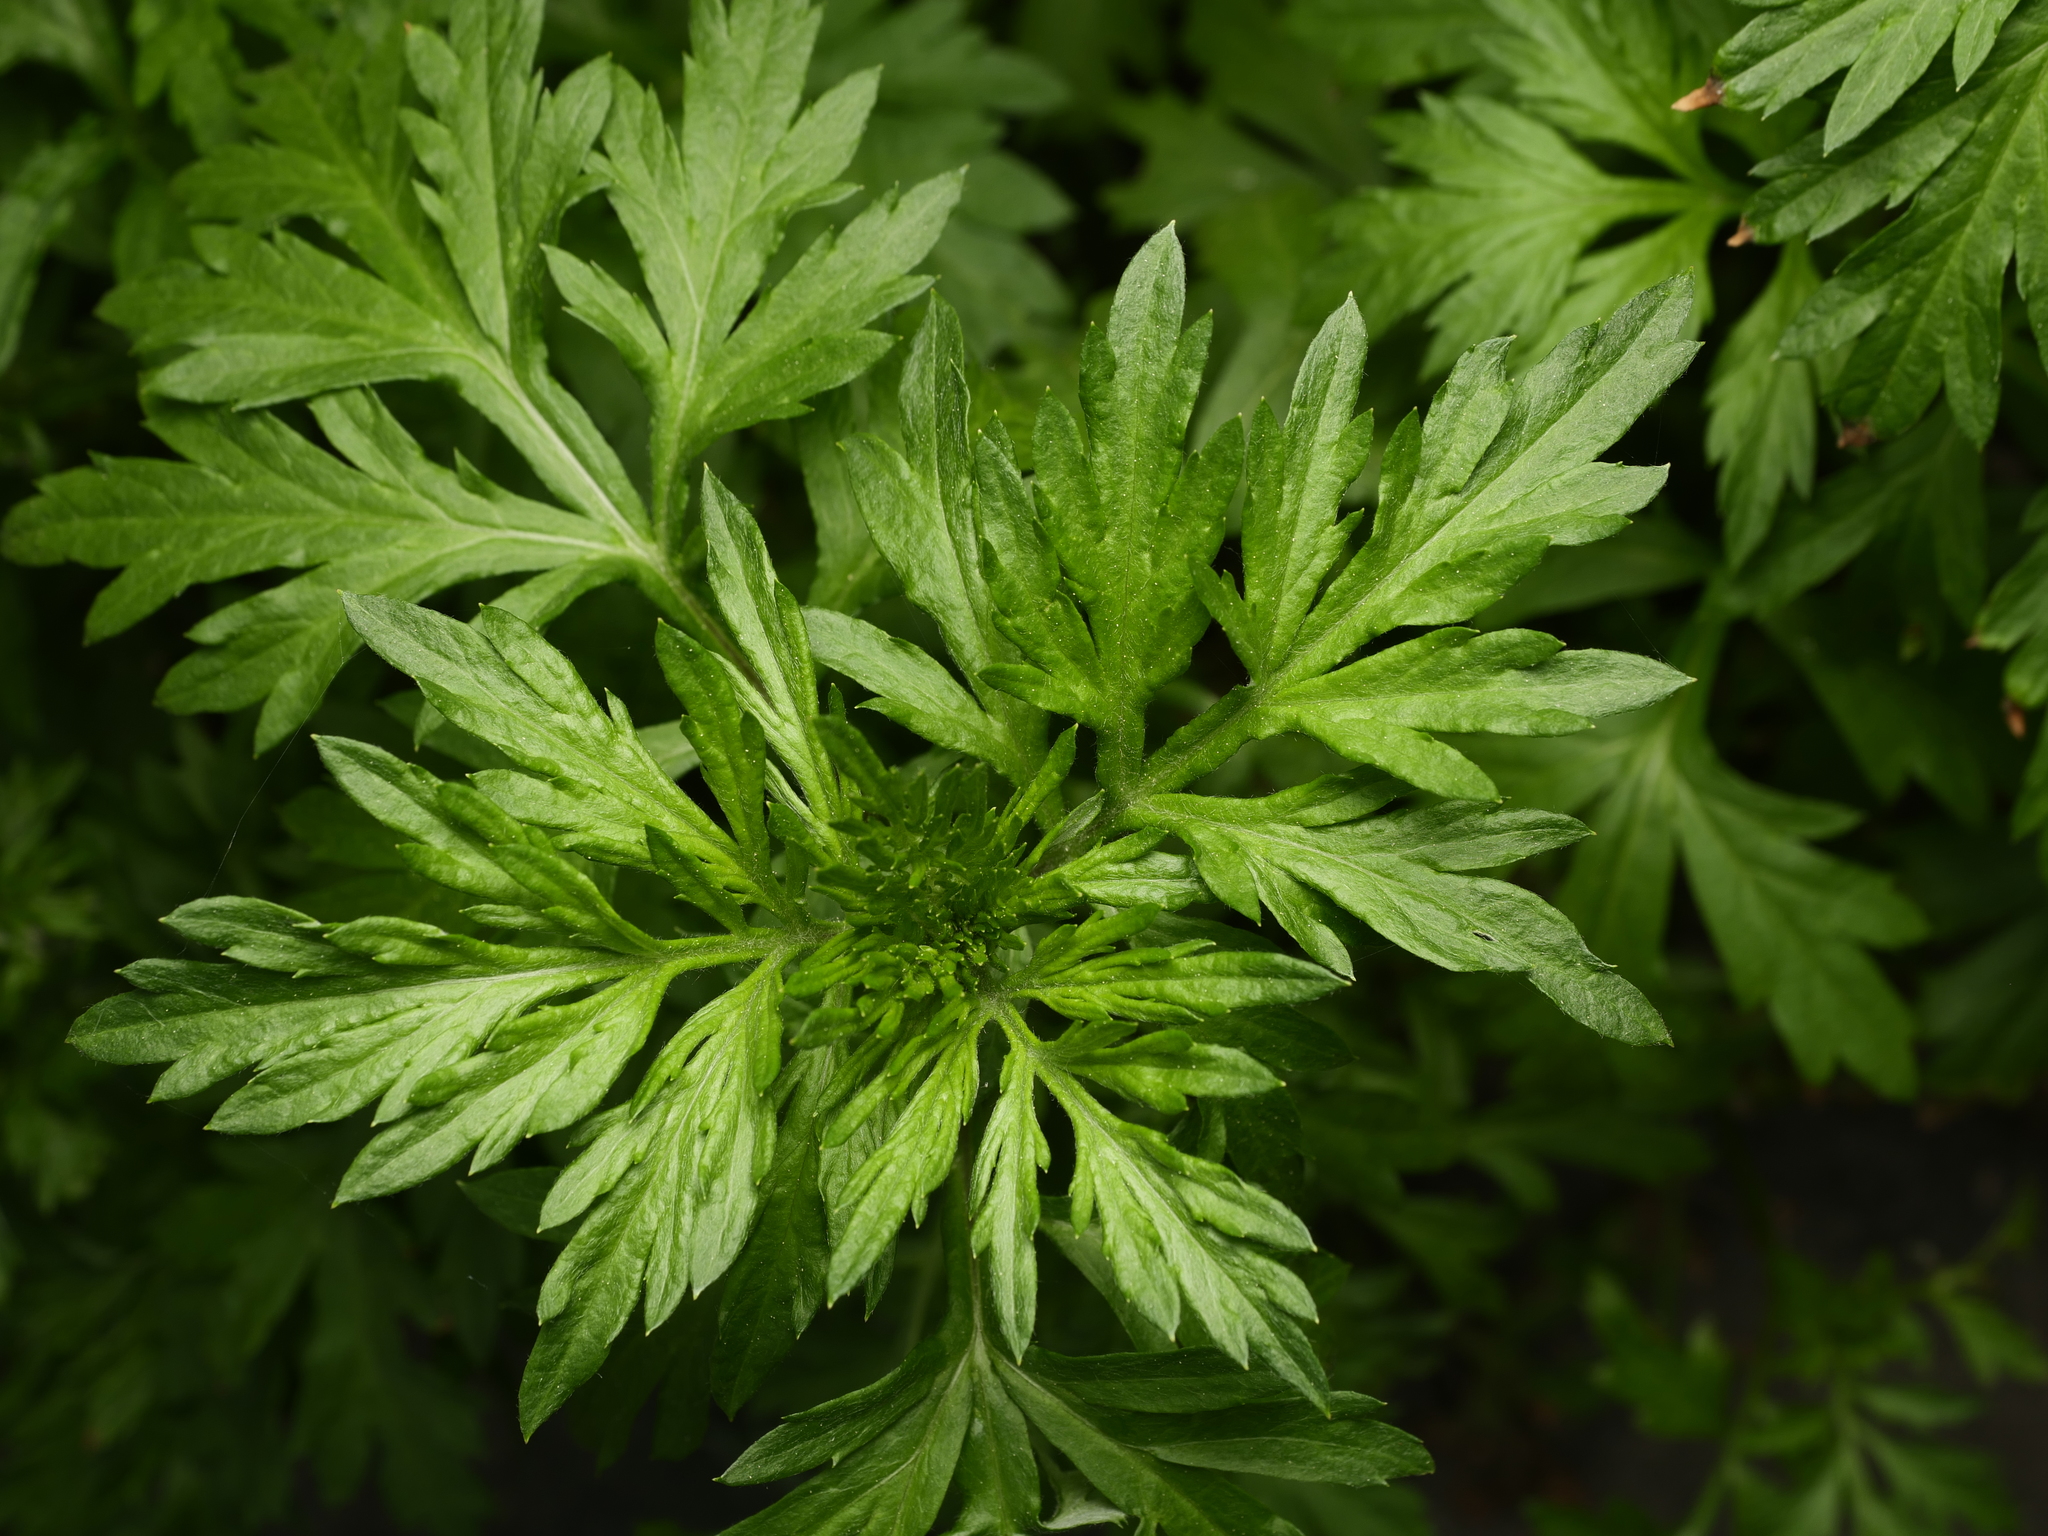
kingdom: Plantae
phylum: Tracheophyta
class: Magnoliopsida
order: Asterales
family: Asteraceae
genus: Artemisia
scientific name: Artemisia vulgaris
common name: Mugwort
